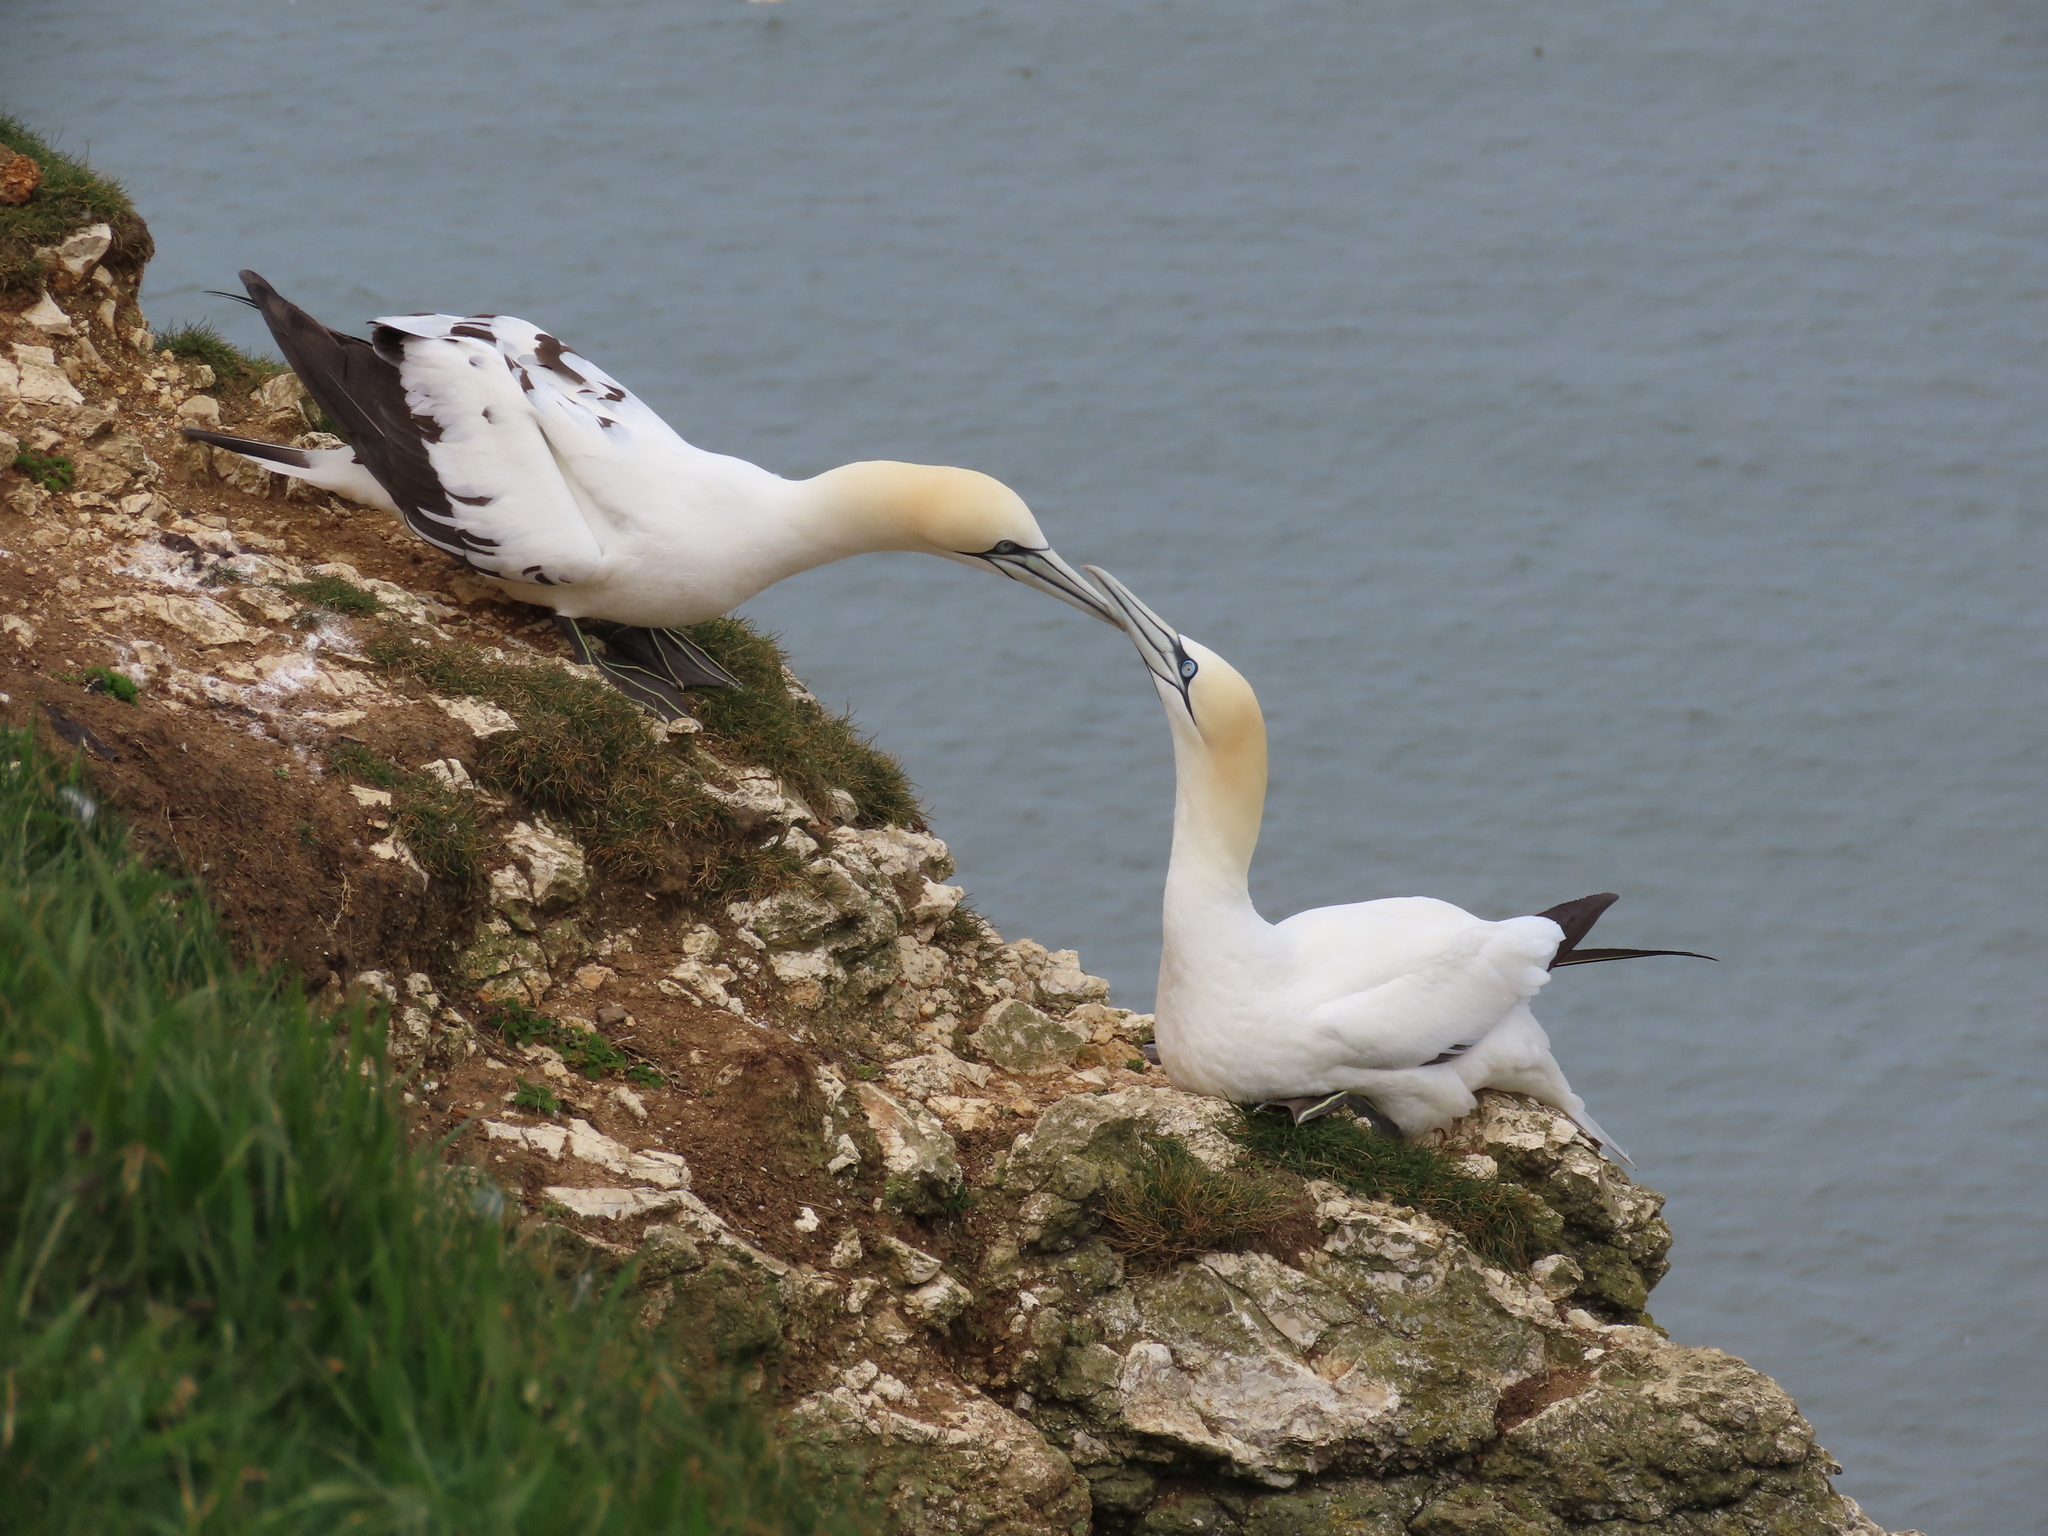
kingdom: Animalia
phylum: Chordata
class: Aves
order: Suliformes
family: Sulidae
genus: Morus
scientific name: Morus bassanus
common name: Northern gannet
